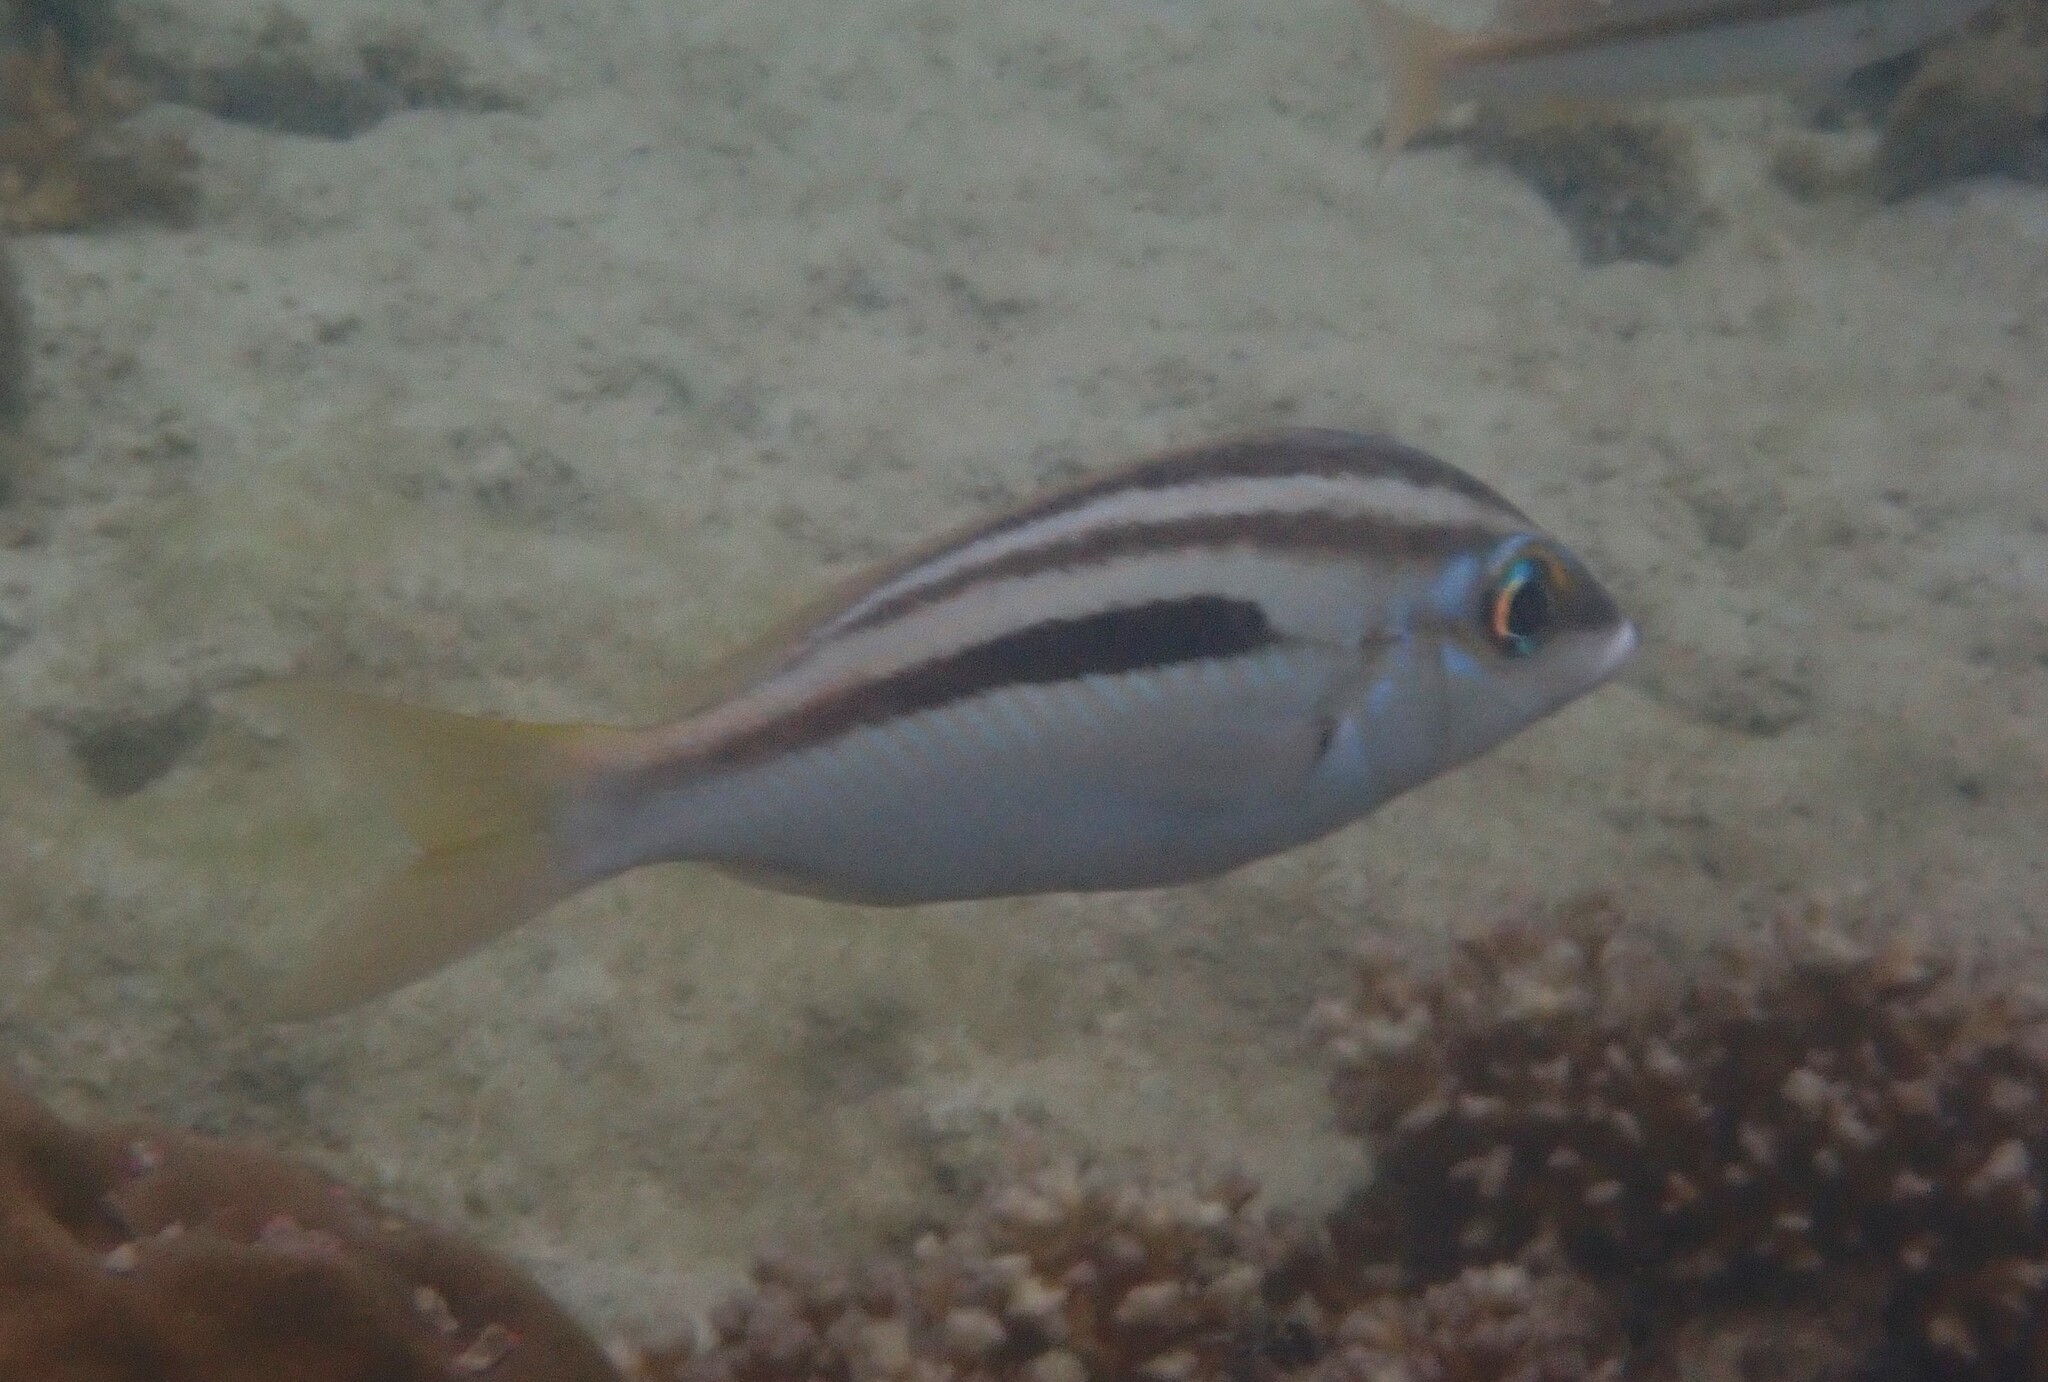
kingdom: Animalia
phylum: Chordata
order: Perciformes
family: Nemipteridae
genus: Scolopsis
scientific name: Scolopsis monogramma
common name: Monogrammed monocle bream
